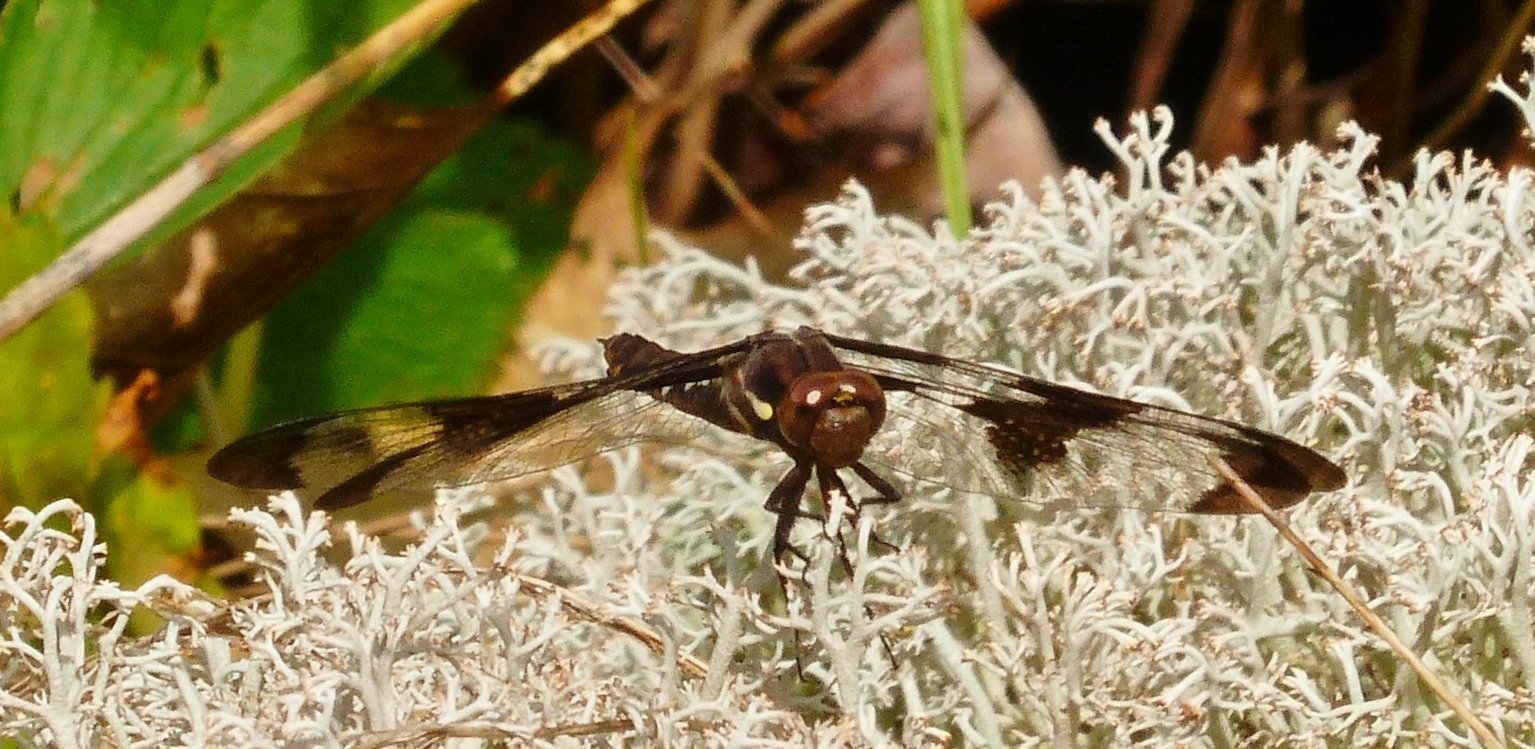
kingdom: Animalia
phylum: Arthropoda
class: Insecta
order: Odonata
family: Libellulidae
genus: Plathemis
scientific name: Plathemis lydia
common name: Common whitetail
